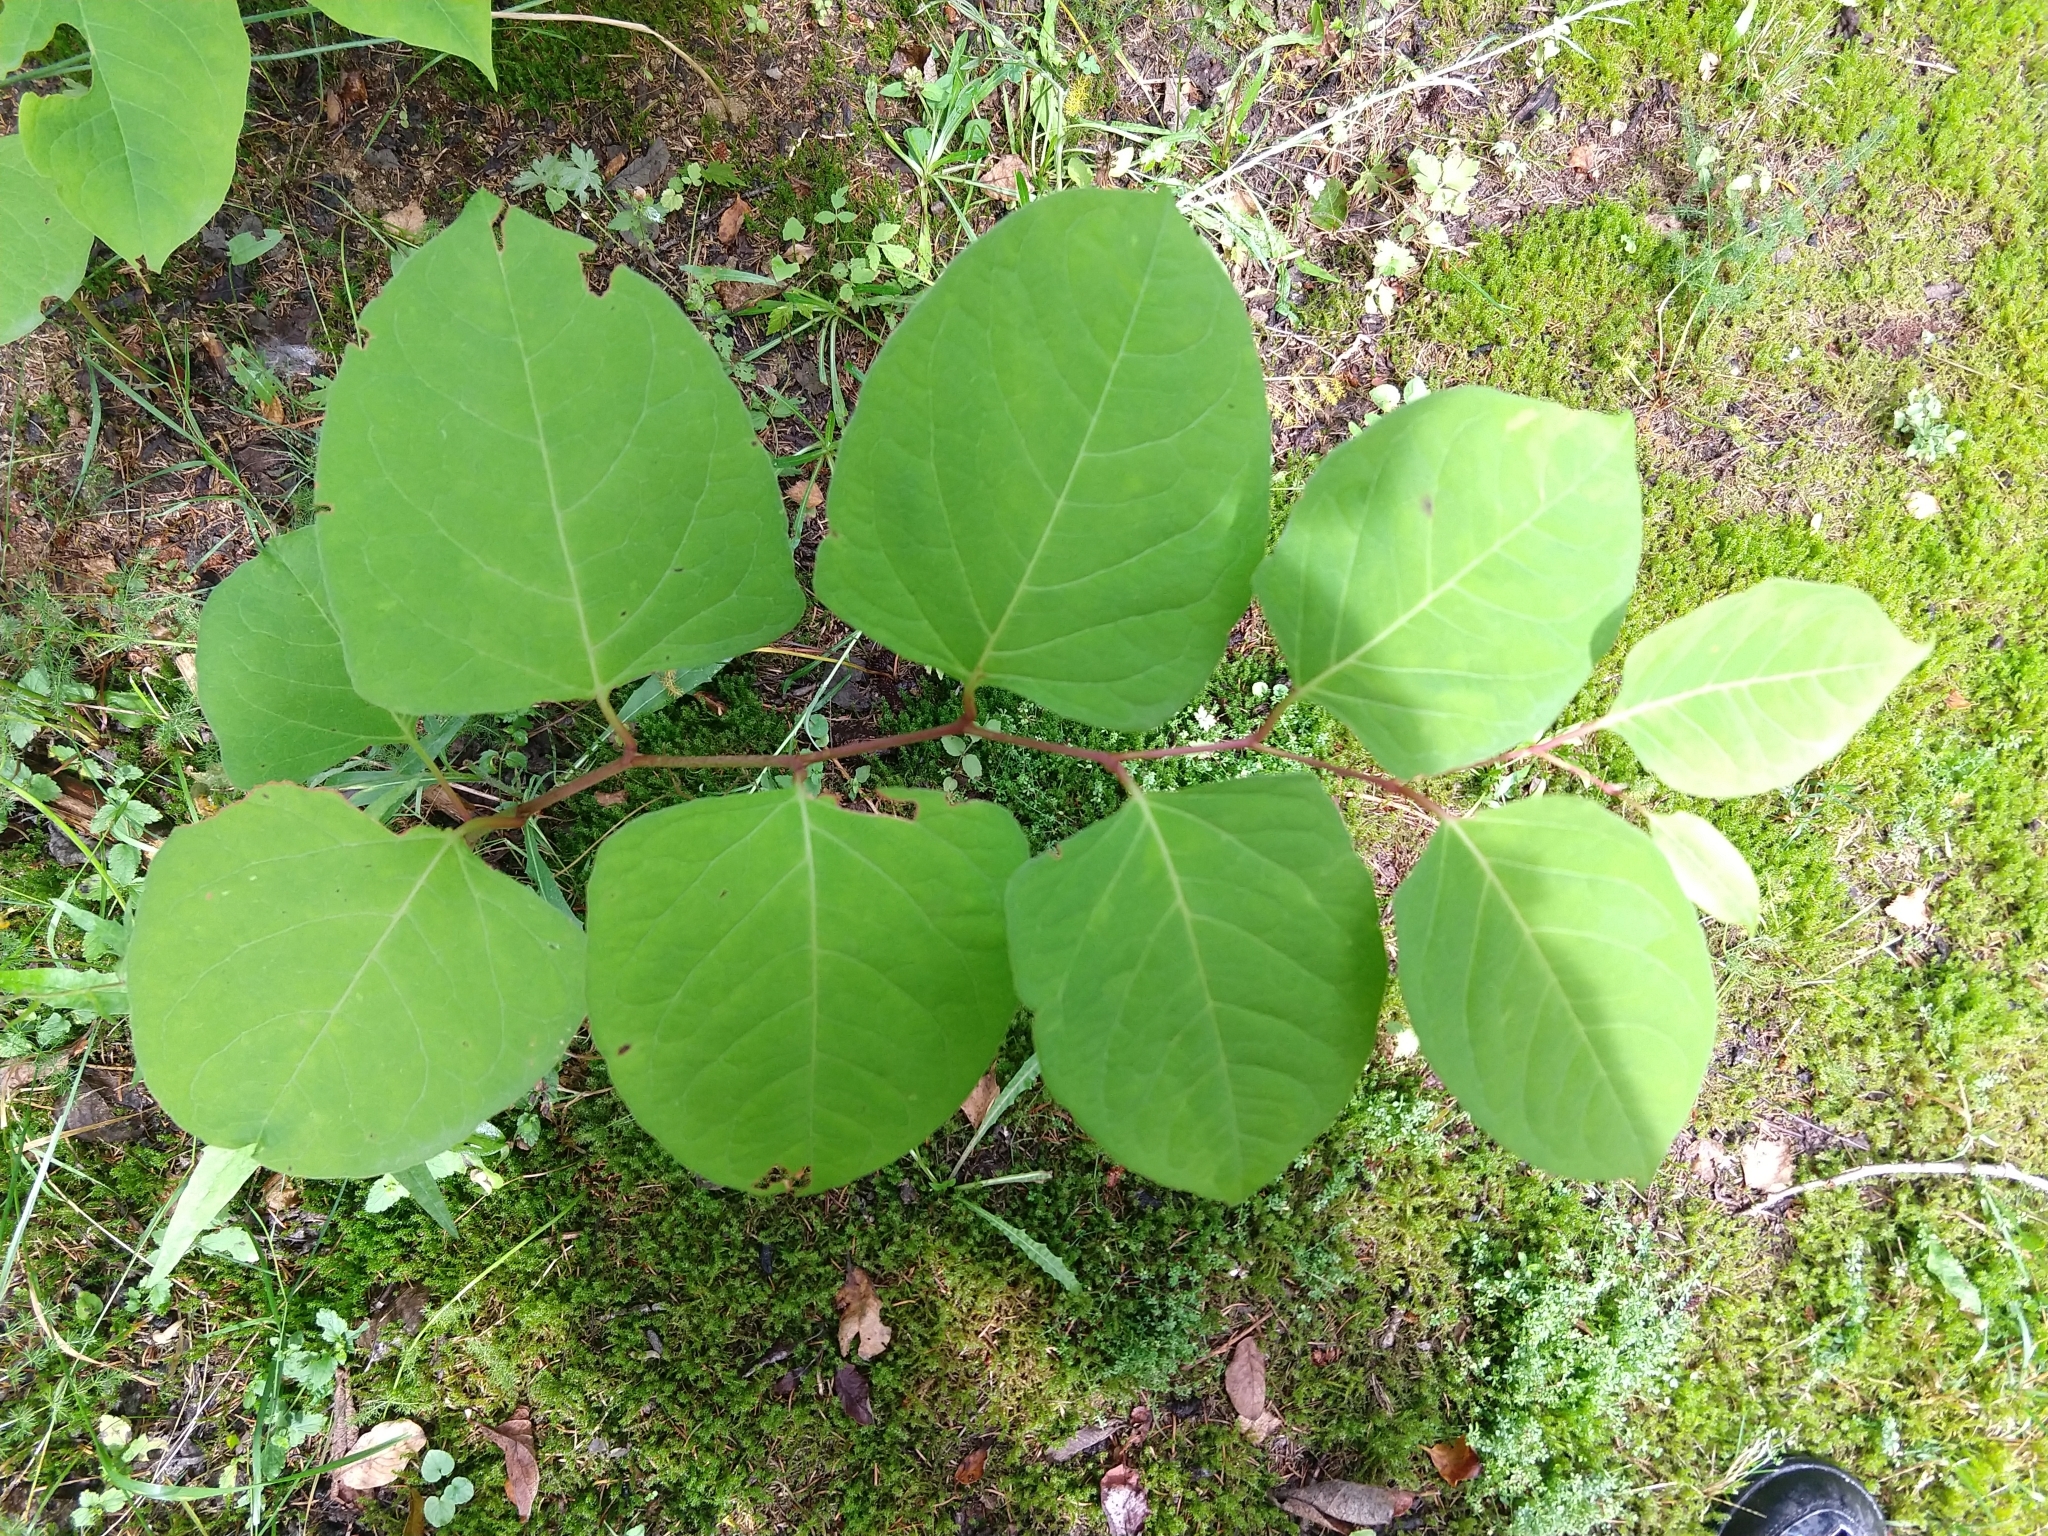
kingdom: Plantae
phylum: Tracheophyta
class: Magnoliopsida
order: Caryophyllales
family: Polygonaceae
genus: Reynoutria
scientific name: Reynoutria japonica
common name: Japanese knotweed
